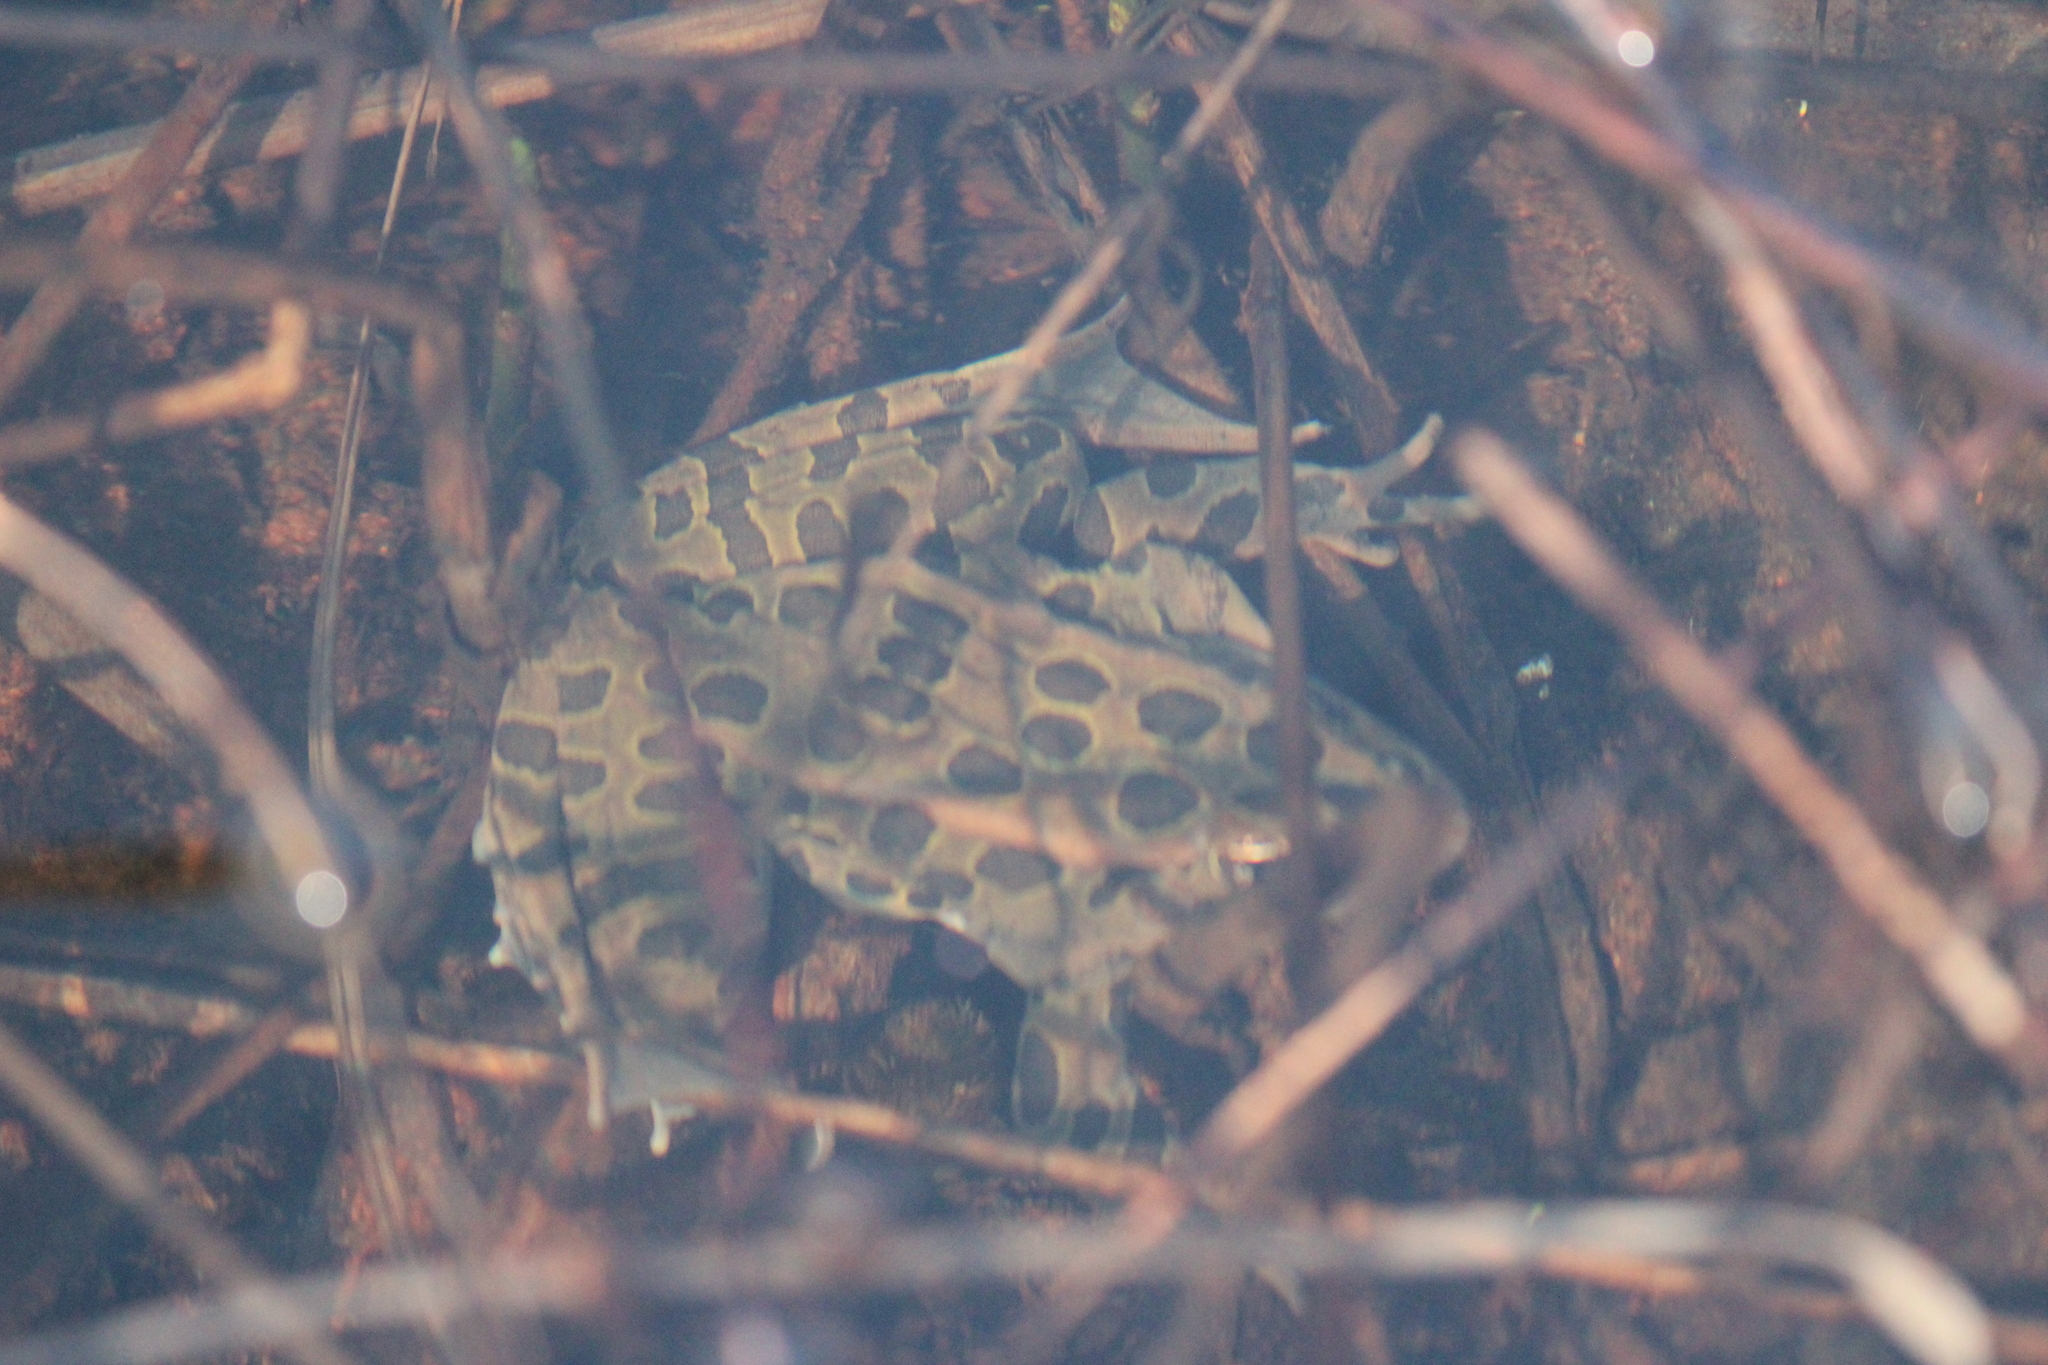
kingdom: Animalia
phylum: Chordata
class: Amphibia
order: Anura
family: Ranidae
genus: Lithobates
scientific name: Lithobates pipiens
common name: Northern leopard frog
